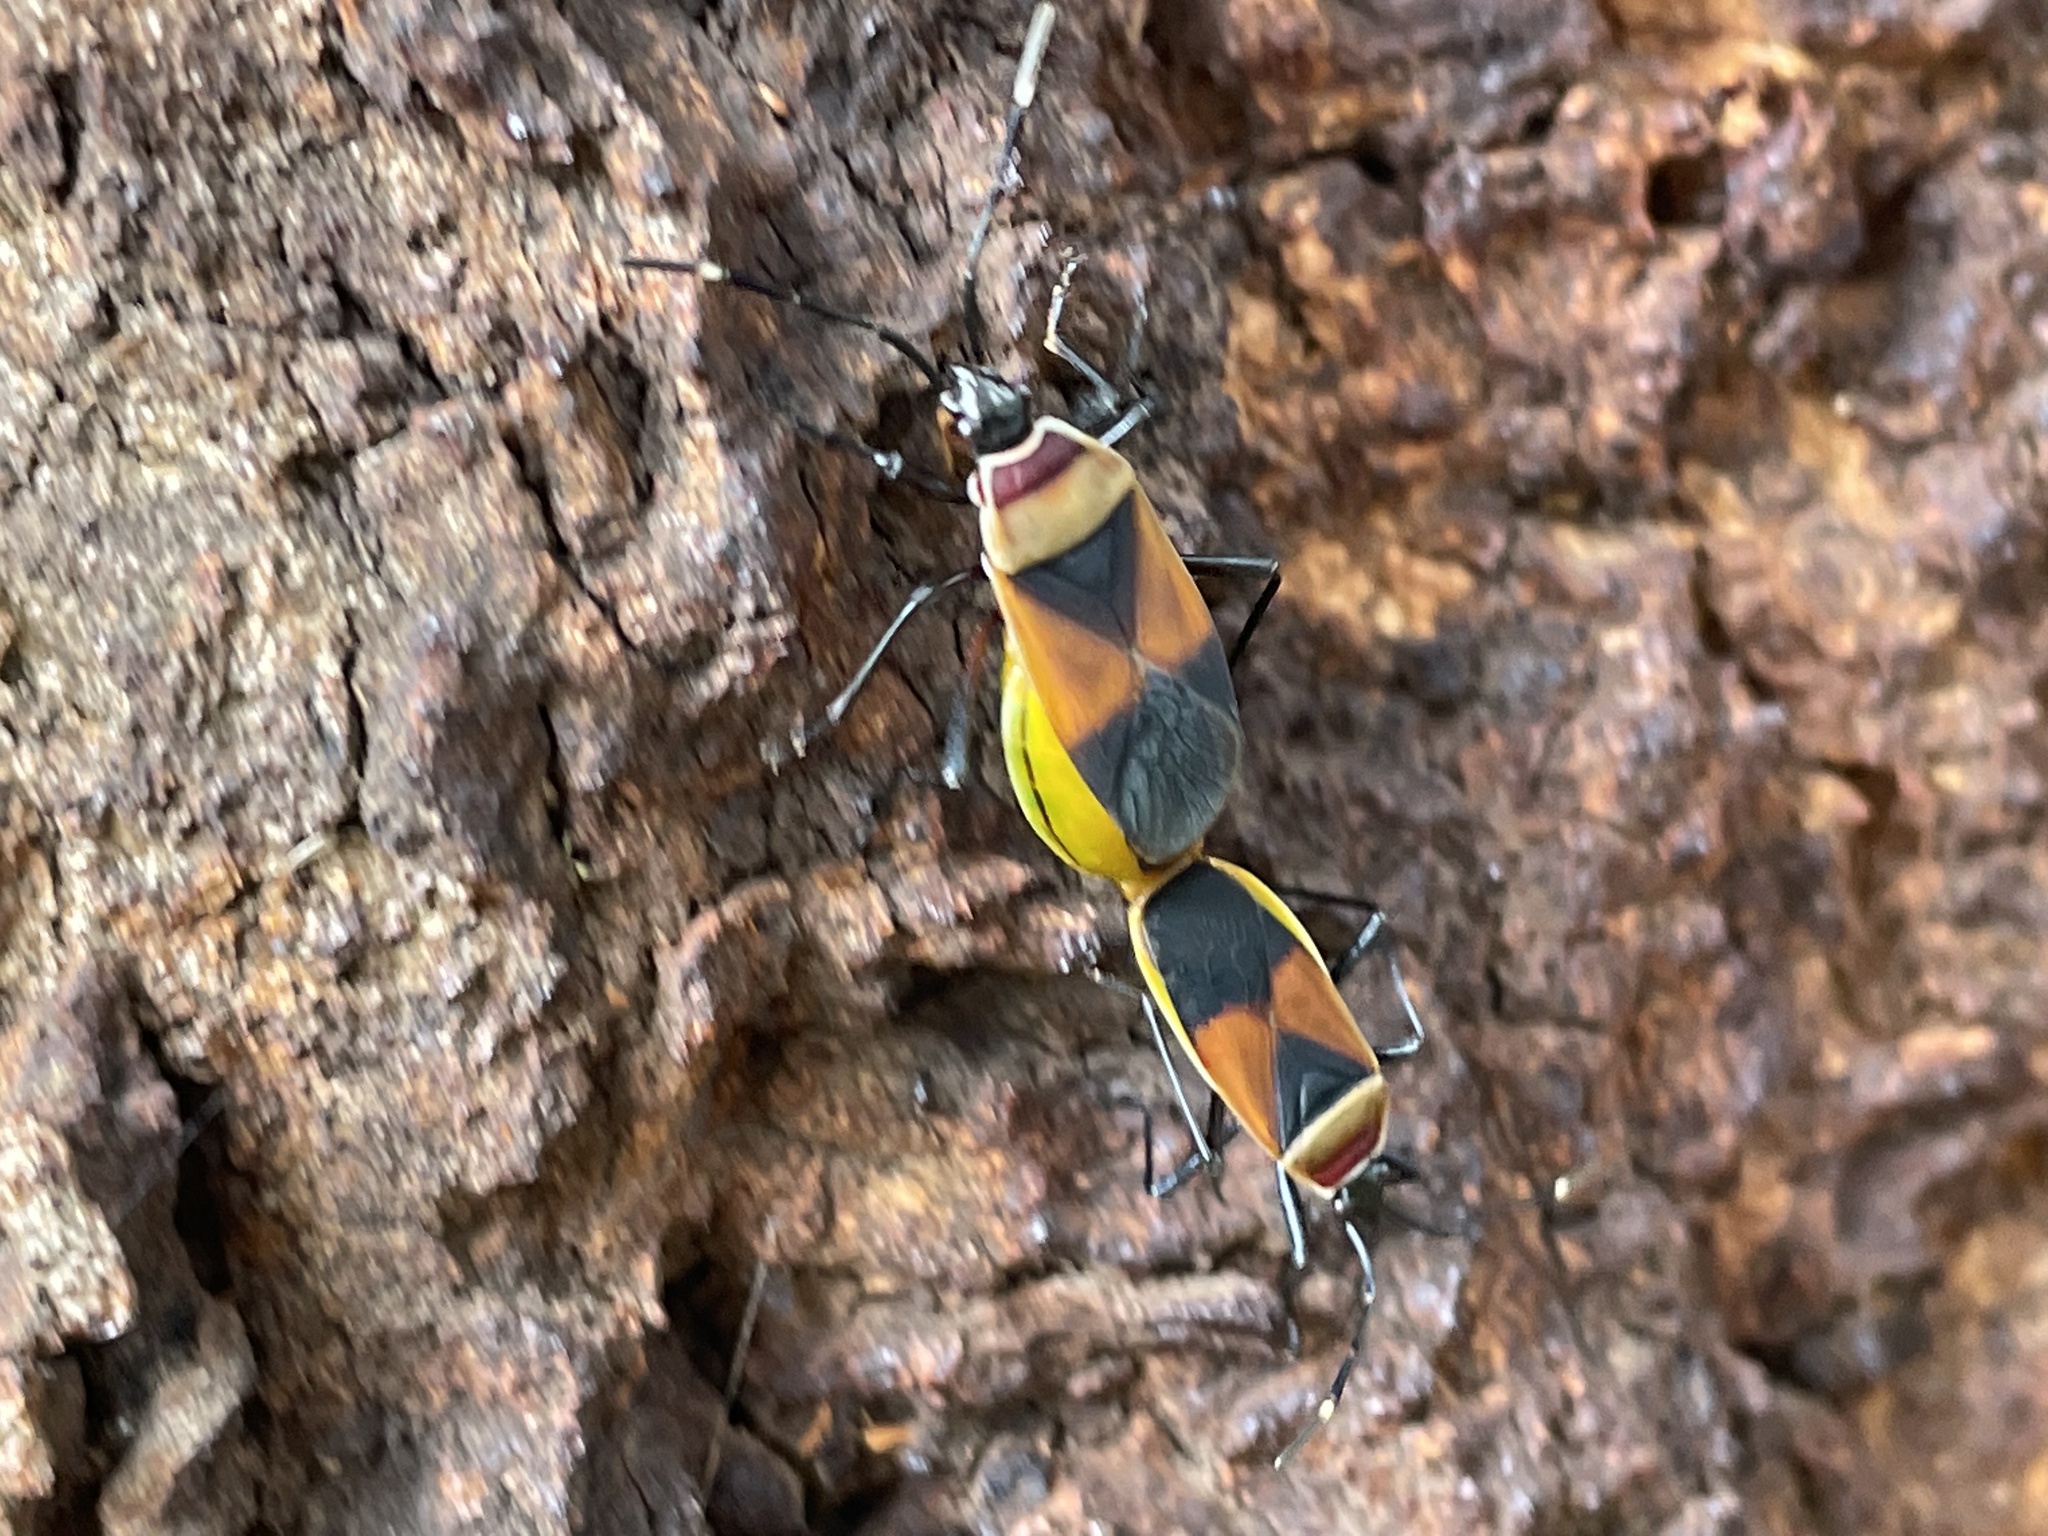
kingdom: Animalia
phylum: Arthropoda
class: Insecta
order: Hemiptera
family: Pyrrhocoridae
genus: Dindymus
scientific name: Dindymus
